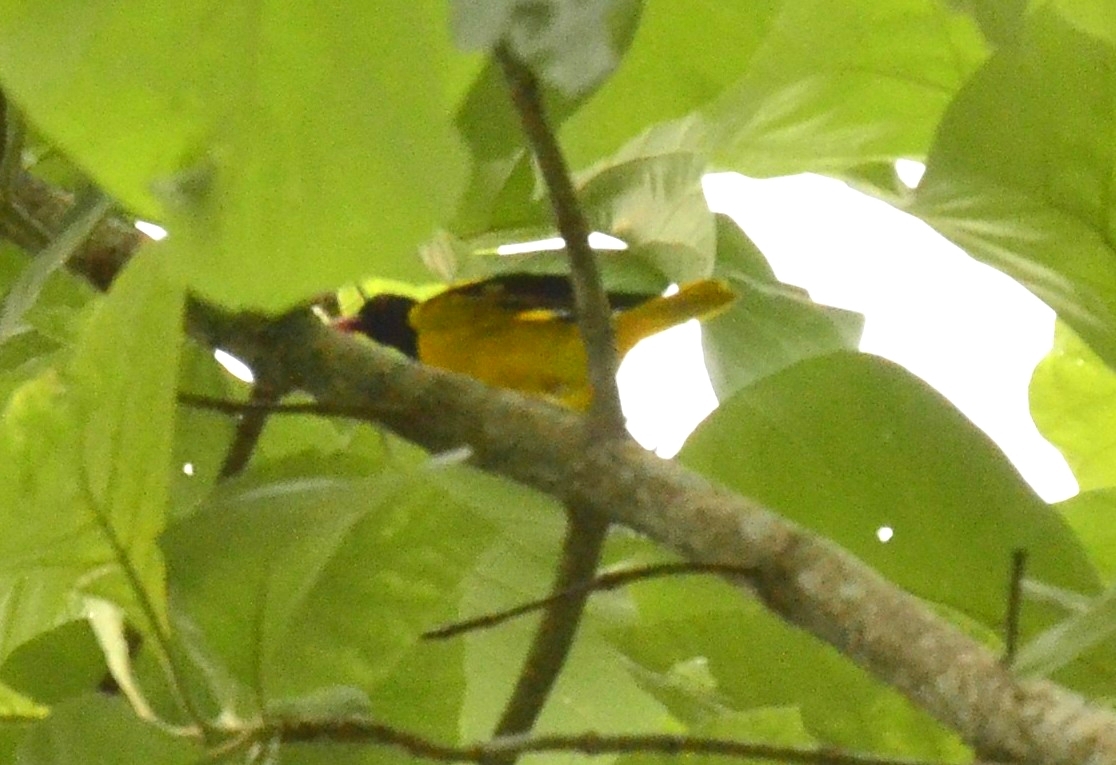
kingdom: Animalia
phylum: Chordata
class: Aves
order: Passeriformes
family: Oriolidae
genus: Oriolus
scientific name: Oriolus xanthornus
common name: Black-hooded oriole
